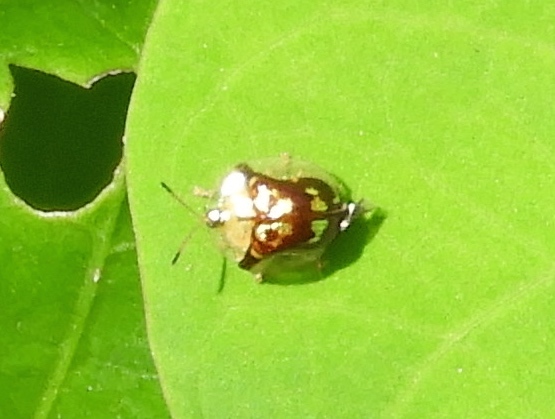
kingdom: Animalia
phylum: Arthropoda
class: Insecta
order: Coleoptera
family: Chrysomelidae
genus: Deloyala
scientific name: Deloyala lecontei
